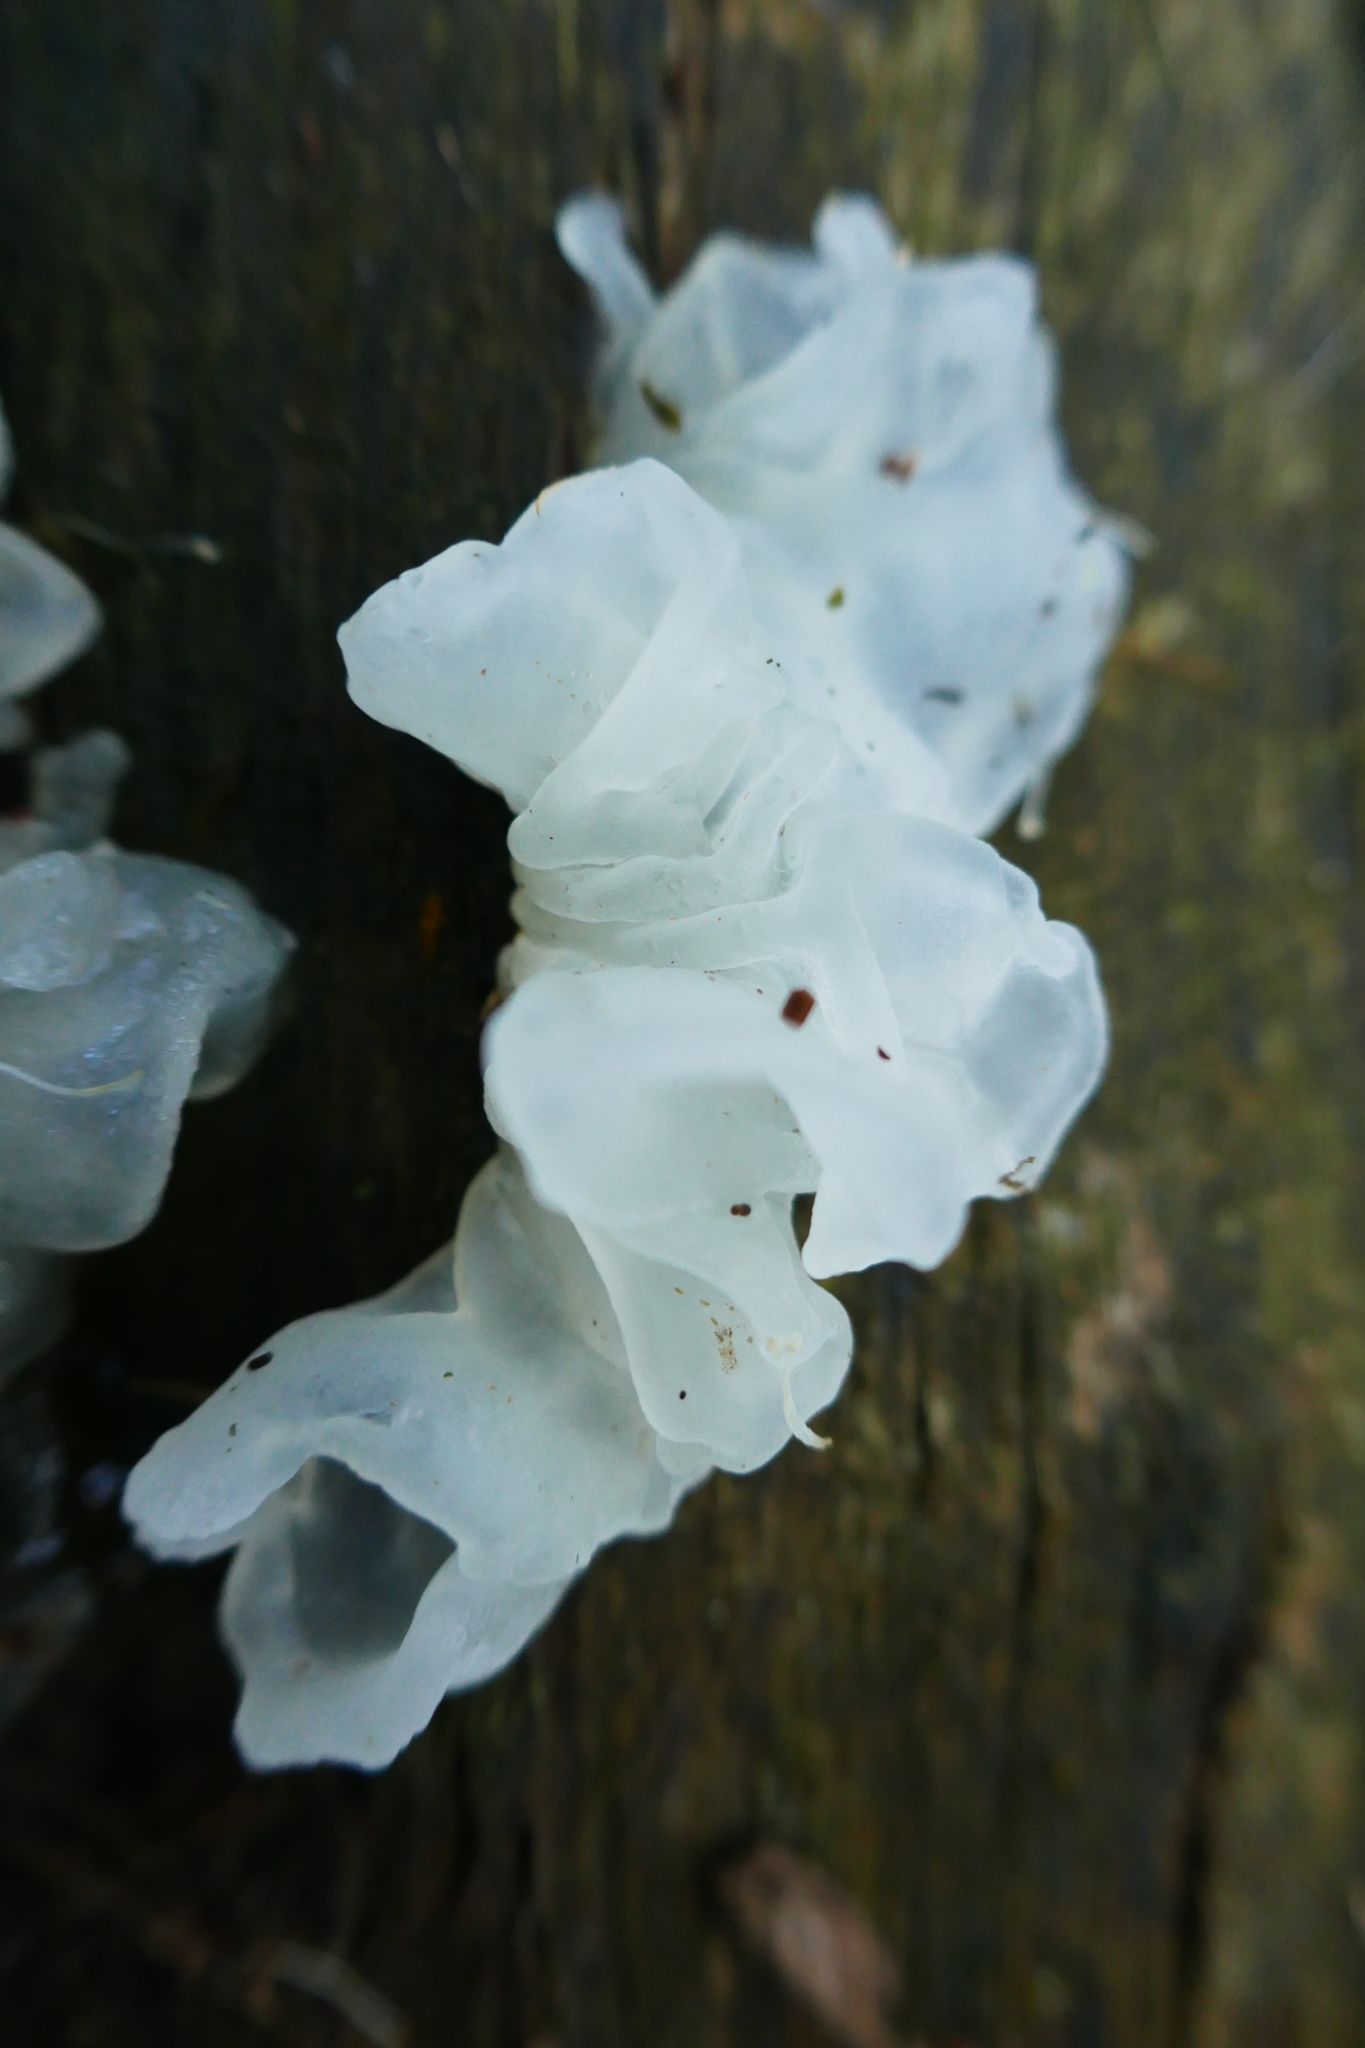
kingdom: Fungi
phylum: Basidiomycota
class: Tremellomycetes
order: Tremellales
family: Tremellaceae
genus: Tremella
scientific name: Tremella fuciformis
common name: Snow fungus
